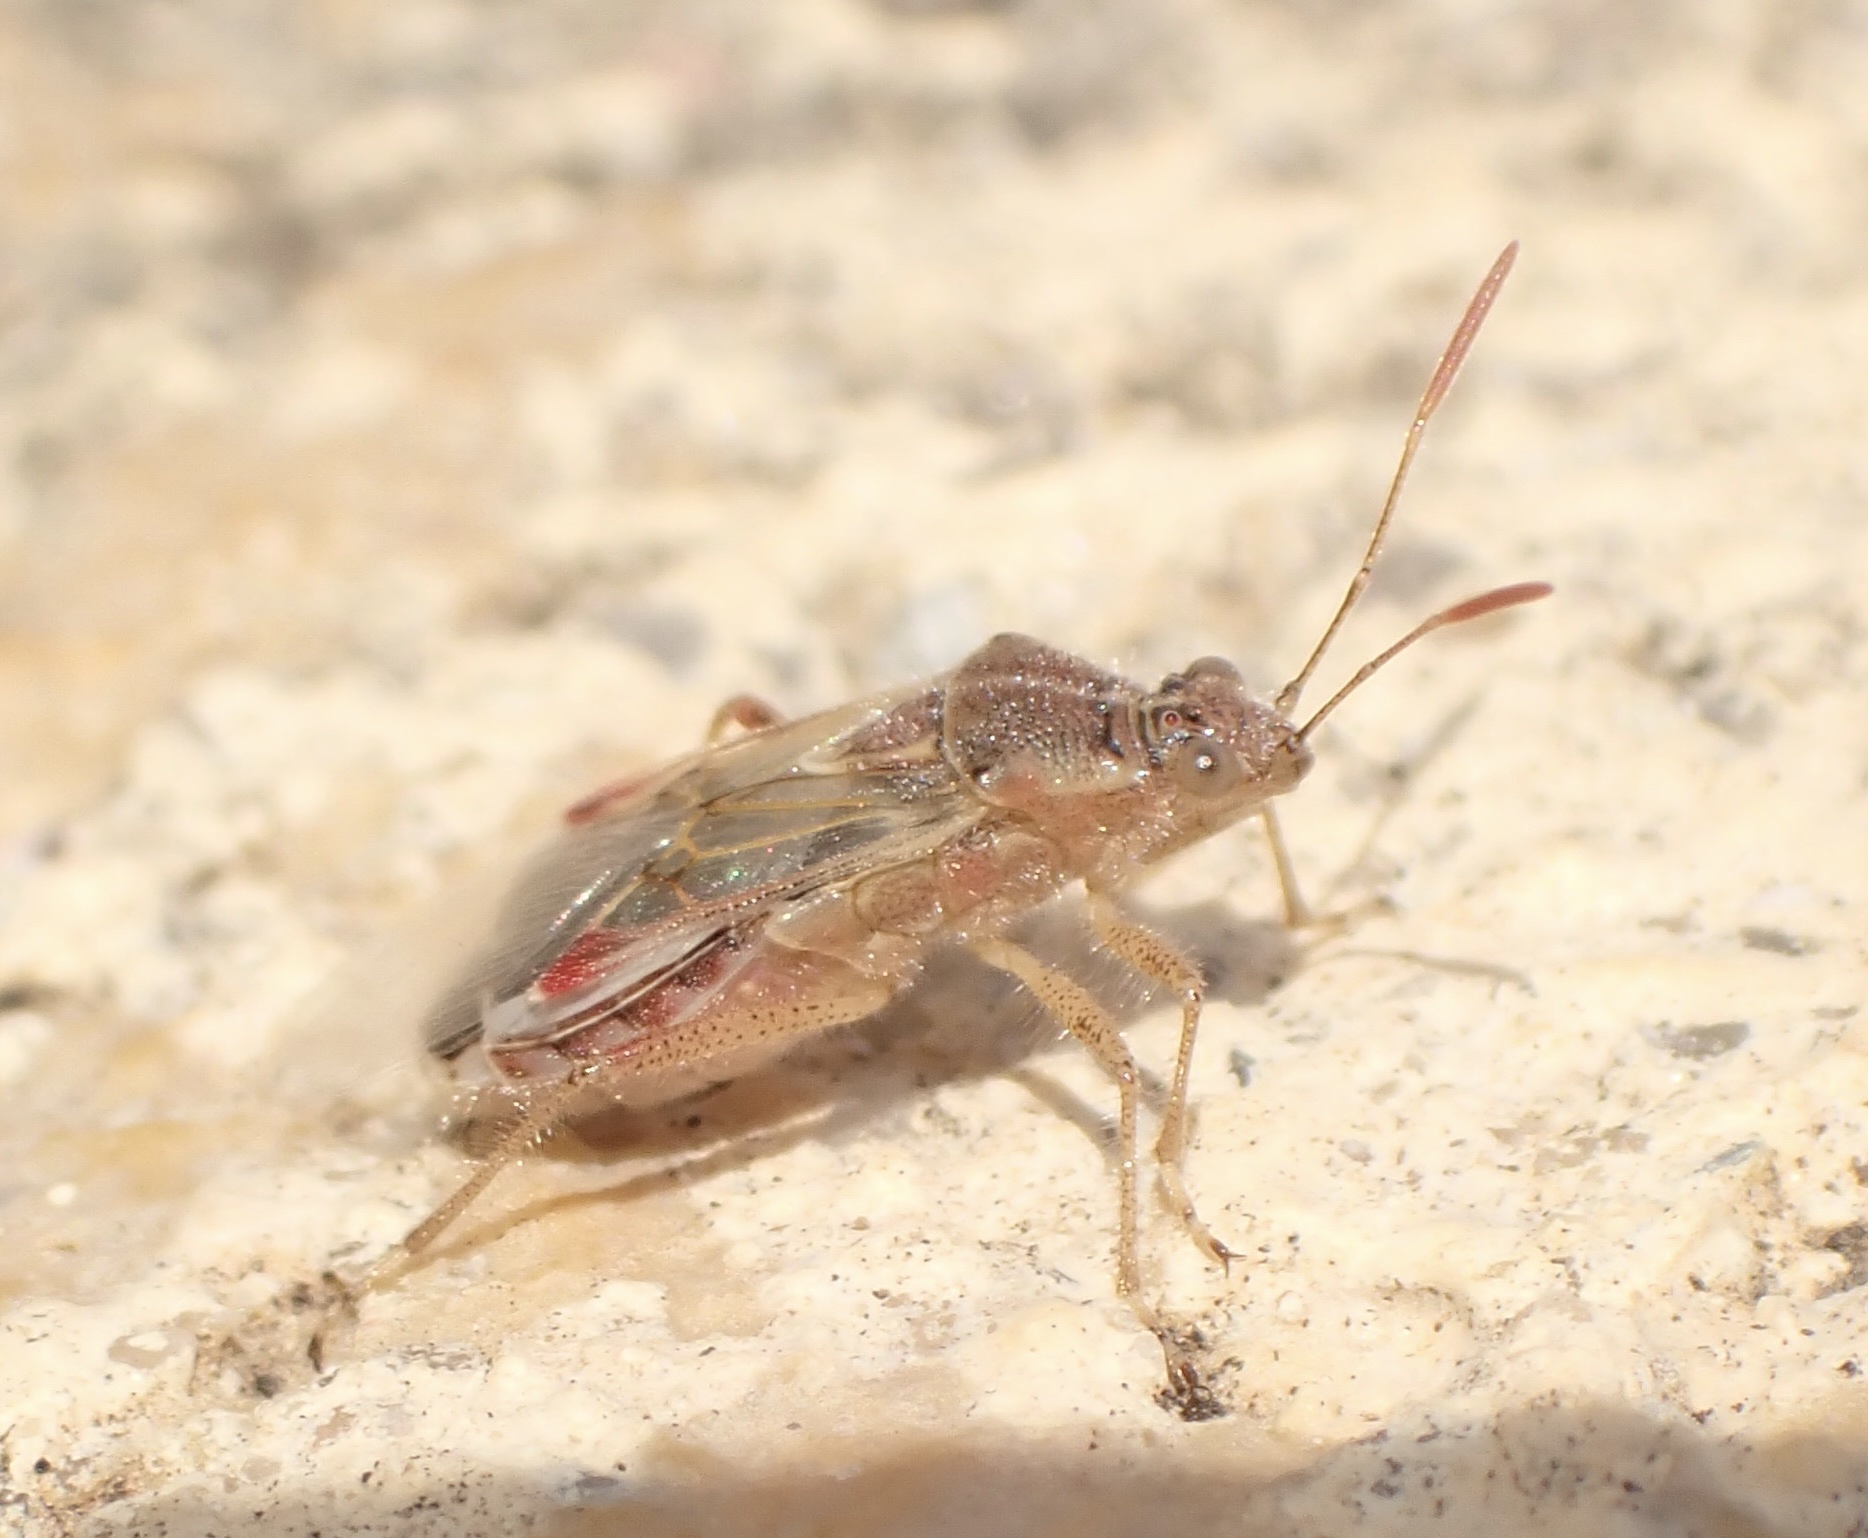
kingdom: Animalia
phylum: Arthropoda
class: Insecta
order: Hemiptera
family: Rhopalidae
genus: Liorhyssus
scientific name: Liorhyssus hyalinus
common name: Scentless plant bug
